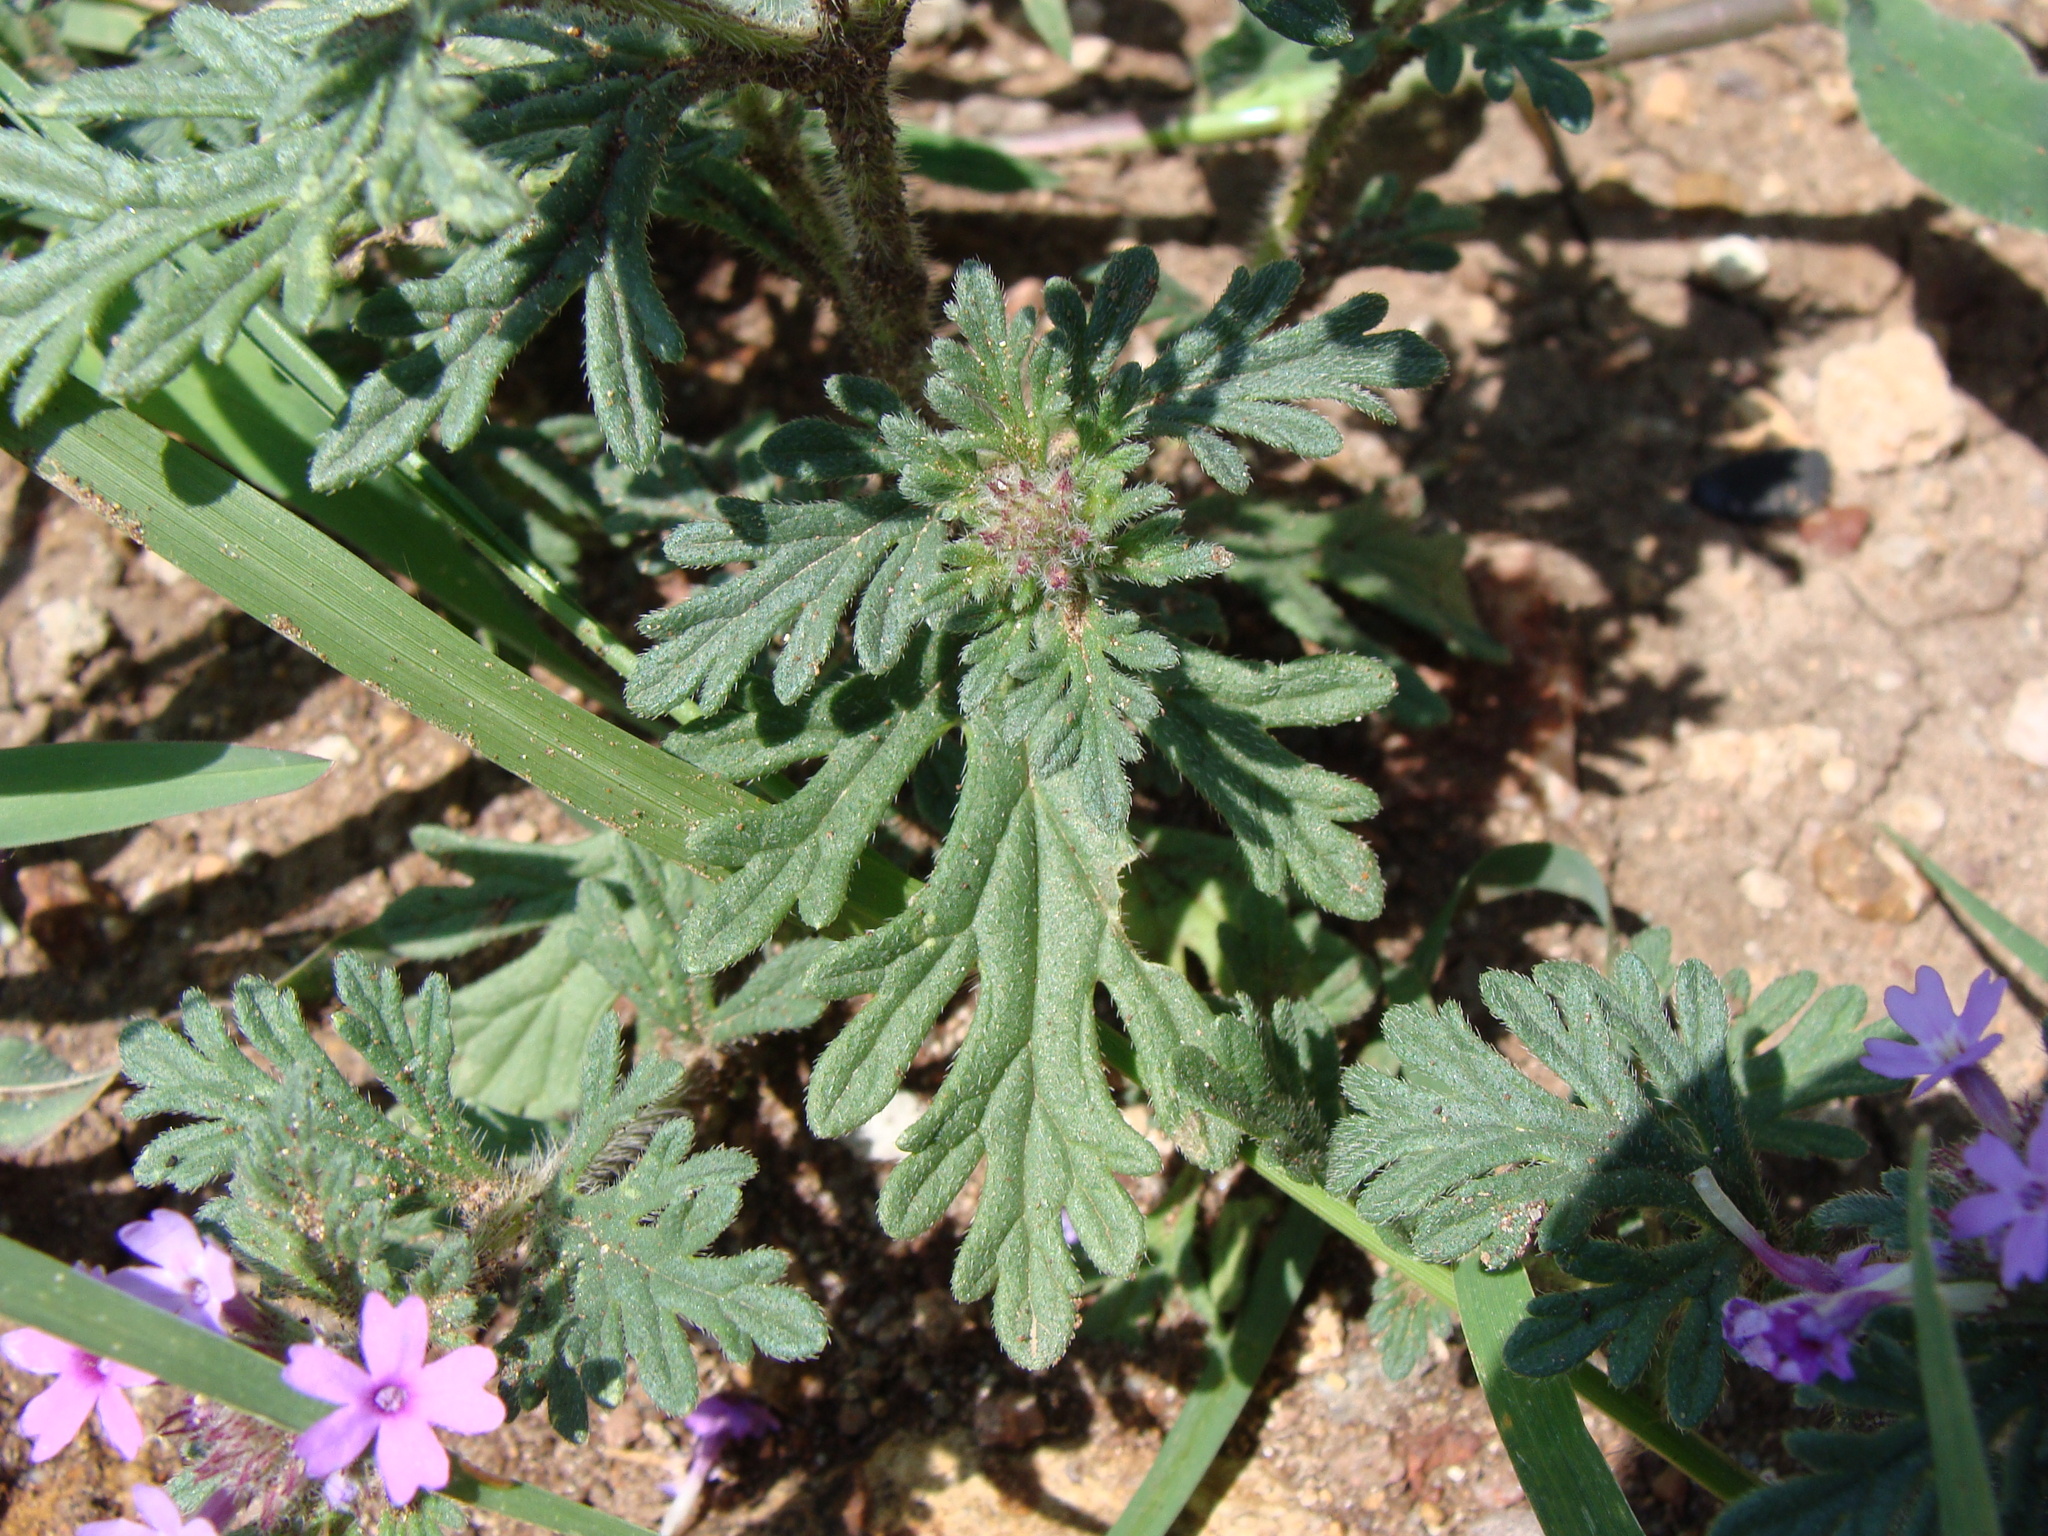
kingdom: Plantae
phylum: Tracheophyta
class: Magnoliopsida
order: Lamiales
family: Verbenaceae
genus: Verbena
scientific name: Verbena bipinnatifida
